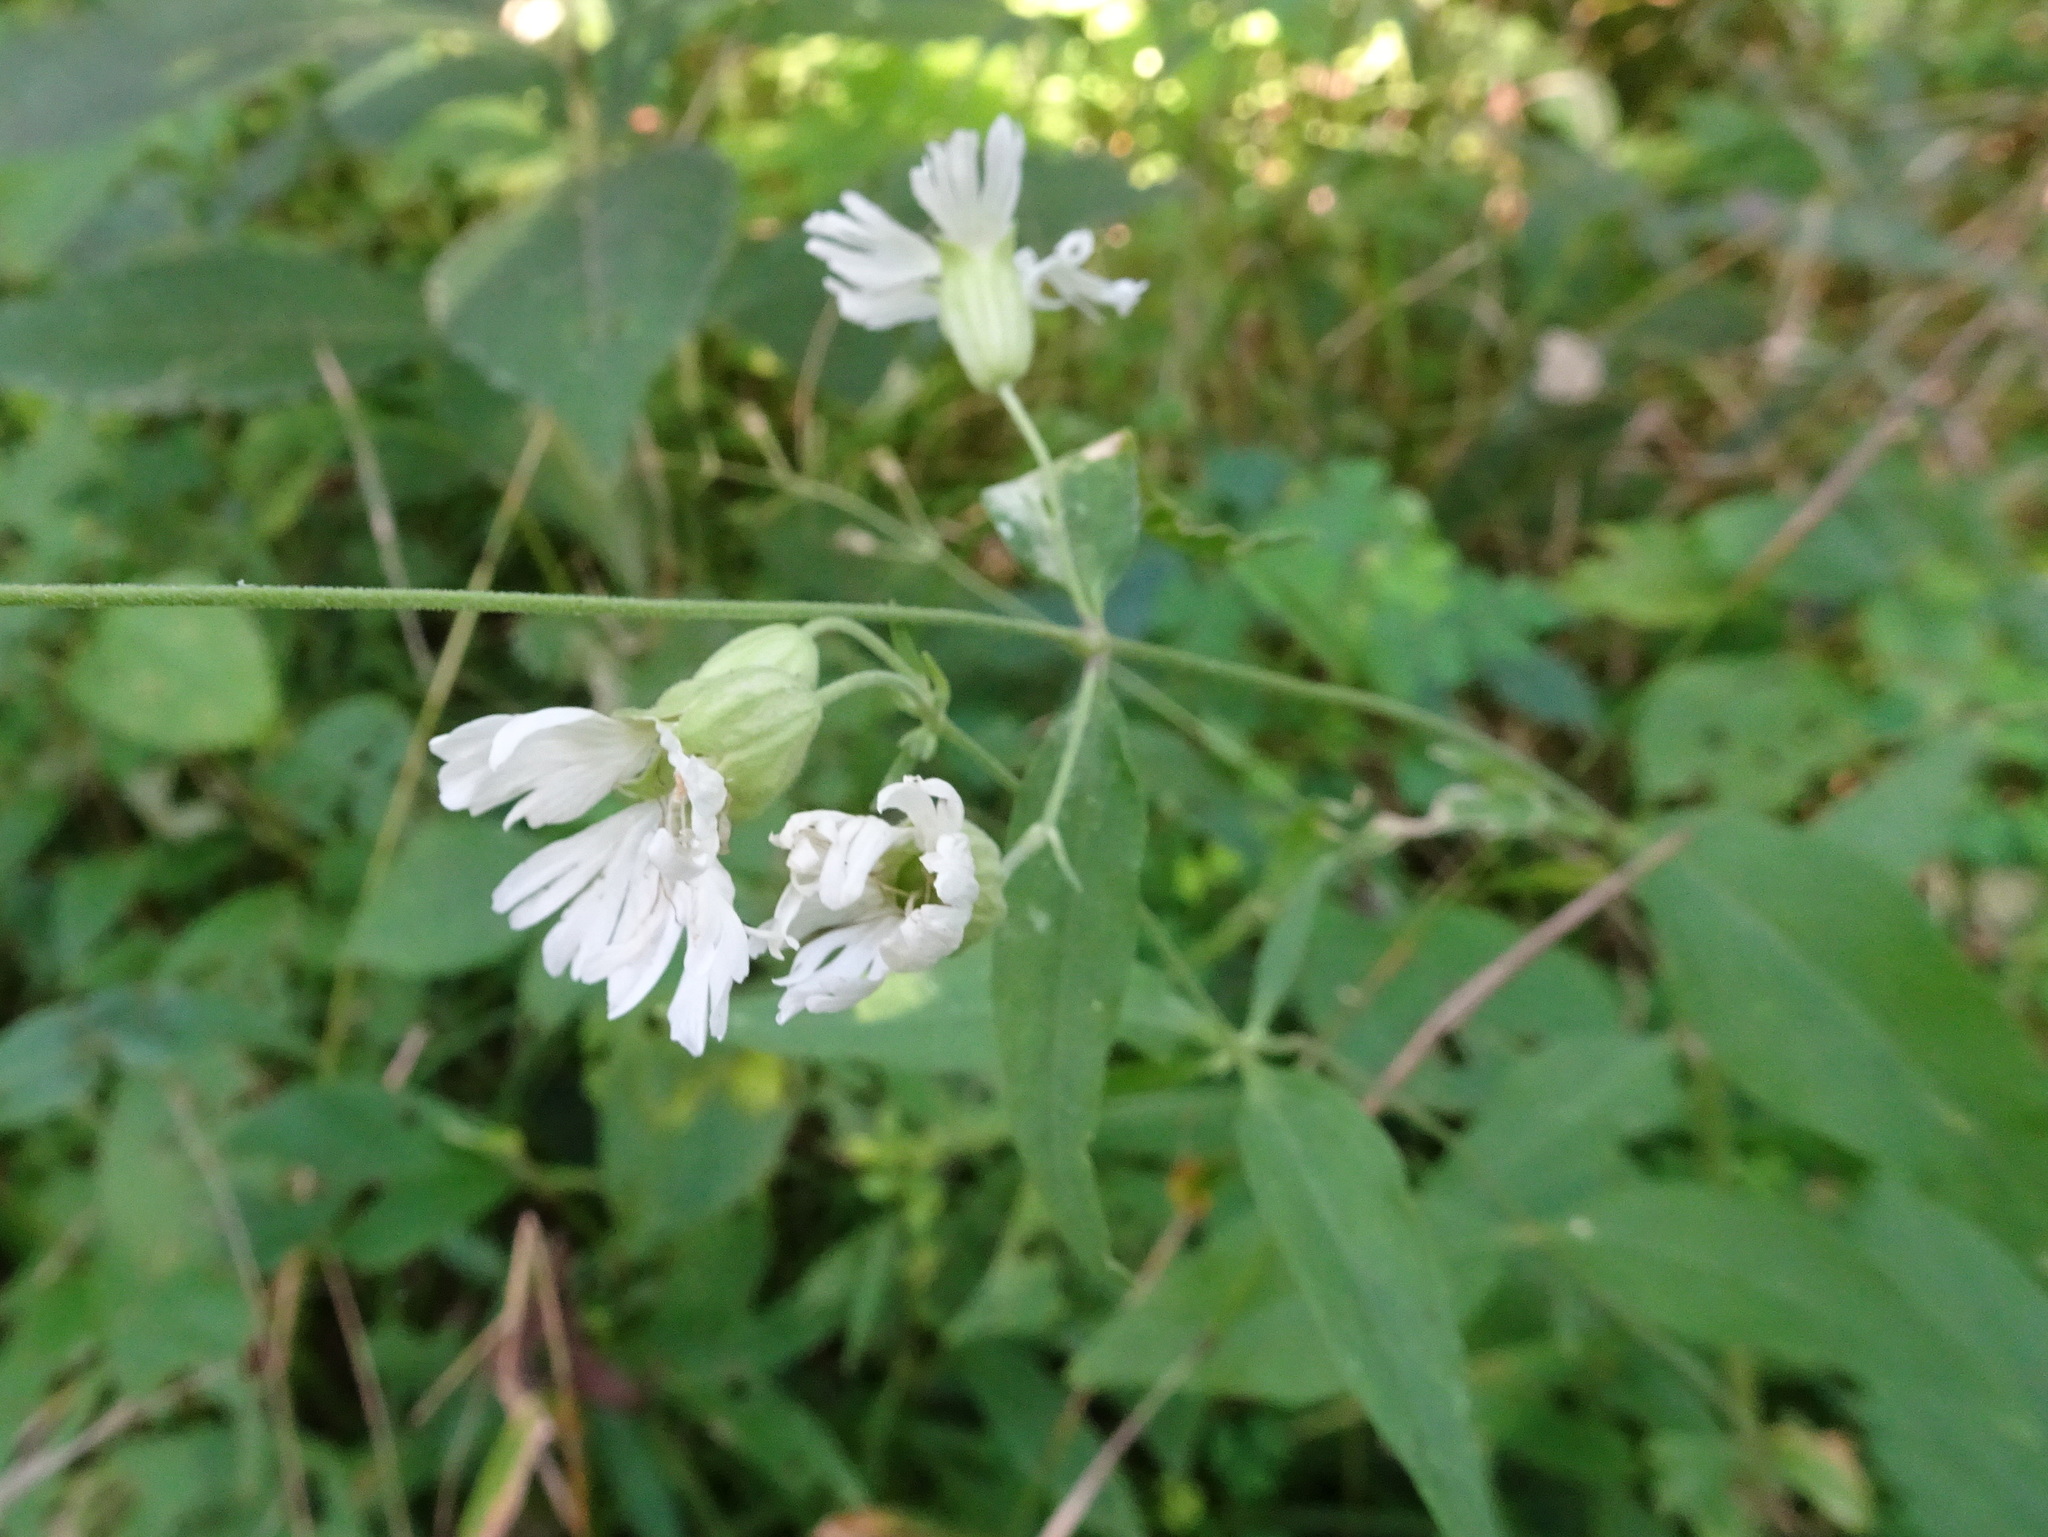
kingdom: Plantae
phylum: Tracheophyta
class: Magnoliopsida
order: Caryophyllales
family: Caryophyllaceae
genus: Silene
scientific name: Silene stellata
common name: Starry campion
